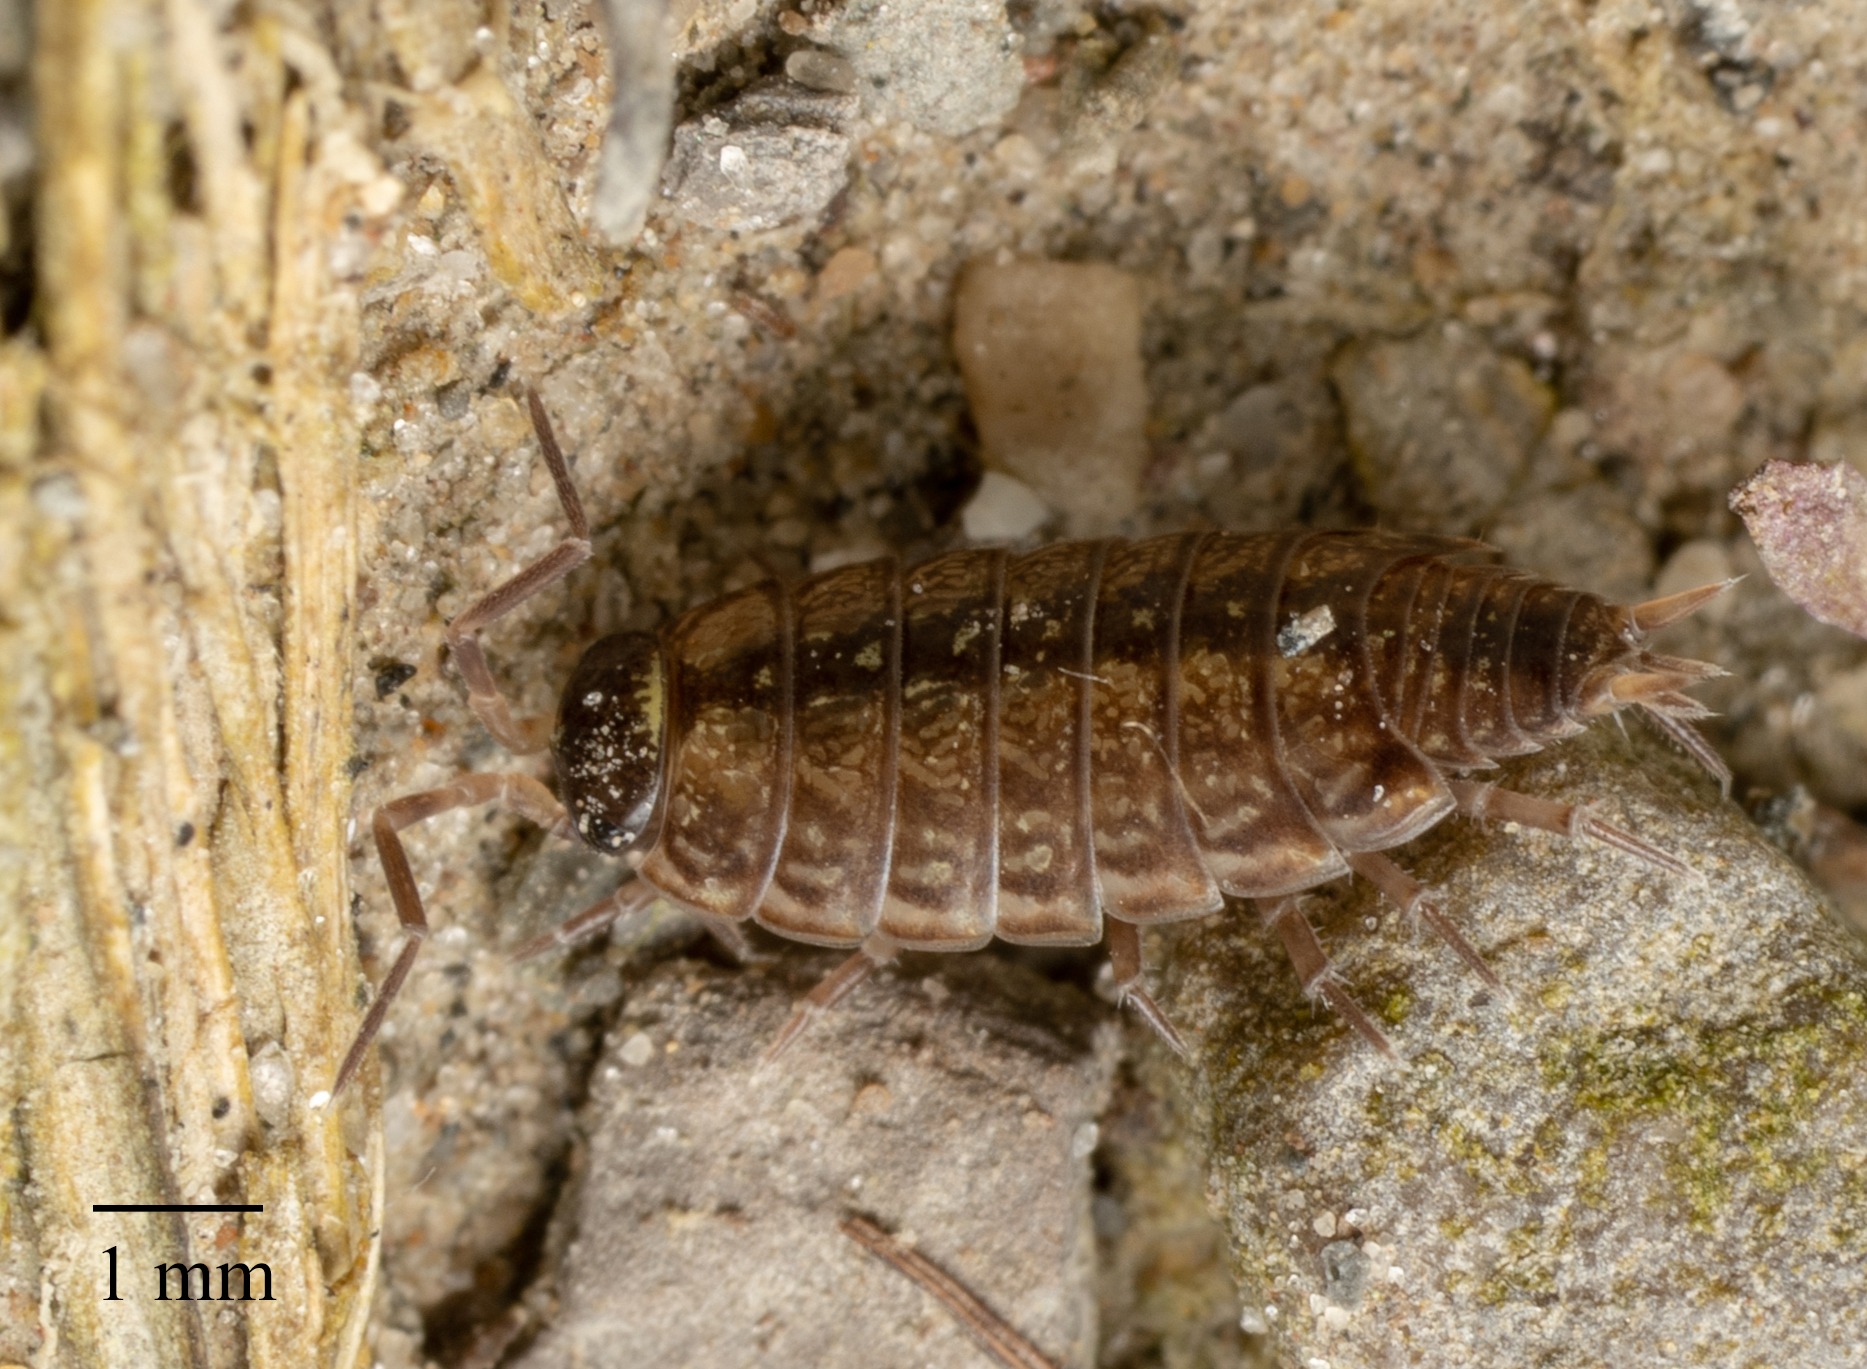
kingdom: Animalia
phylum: Arthropoda
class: Malacostraca
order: Isopoda
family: Philosciidae
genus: Philoscia
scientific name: Philoscia muscorum
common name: Common striped woodlouse
